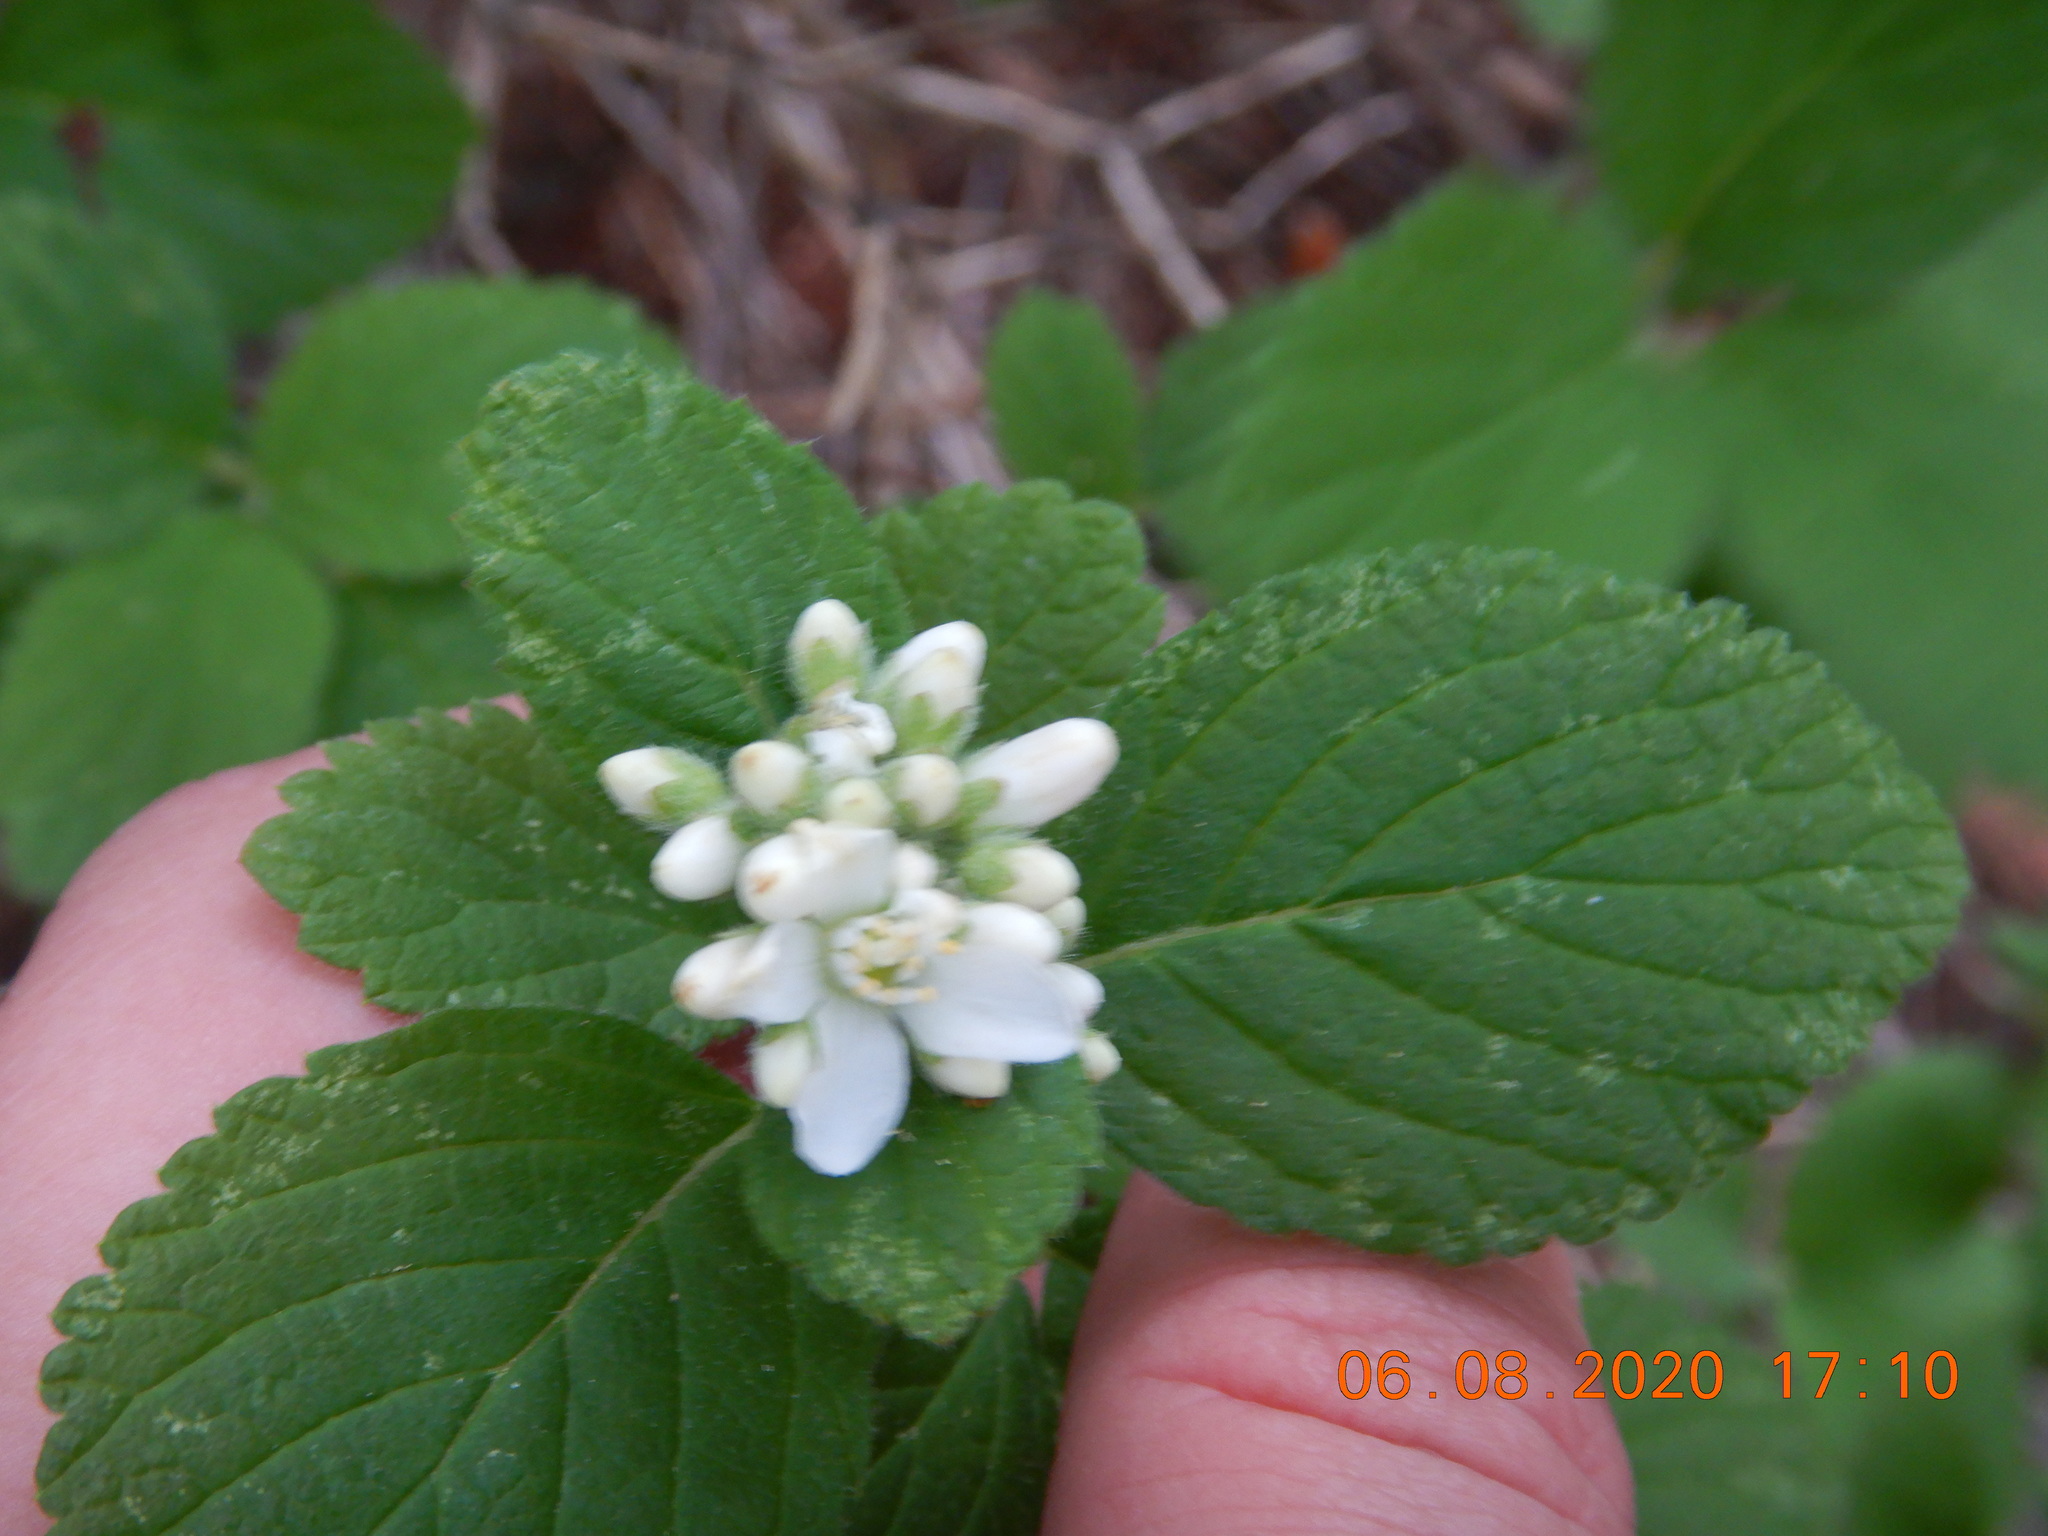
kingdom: Plantae
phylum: Tracheophyta
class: Magnoliopsida
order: Cornales
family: Hydrangeaceae
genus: Jamesia
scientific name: Jamesia americana
